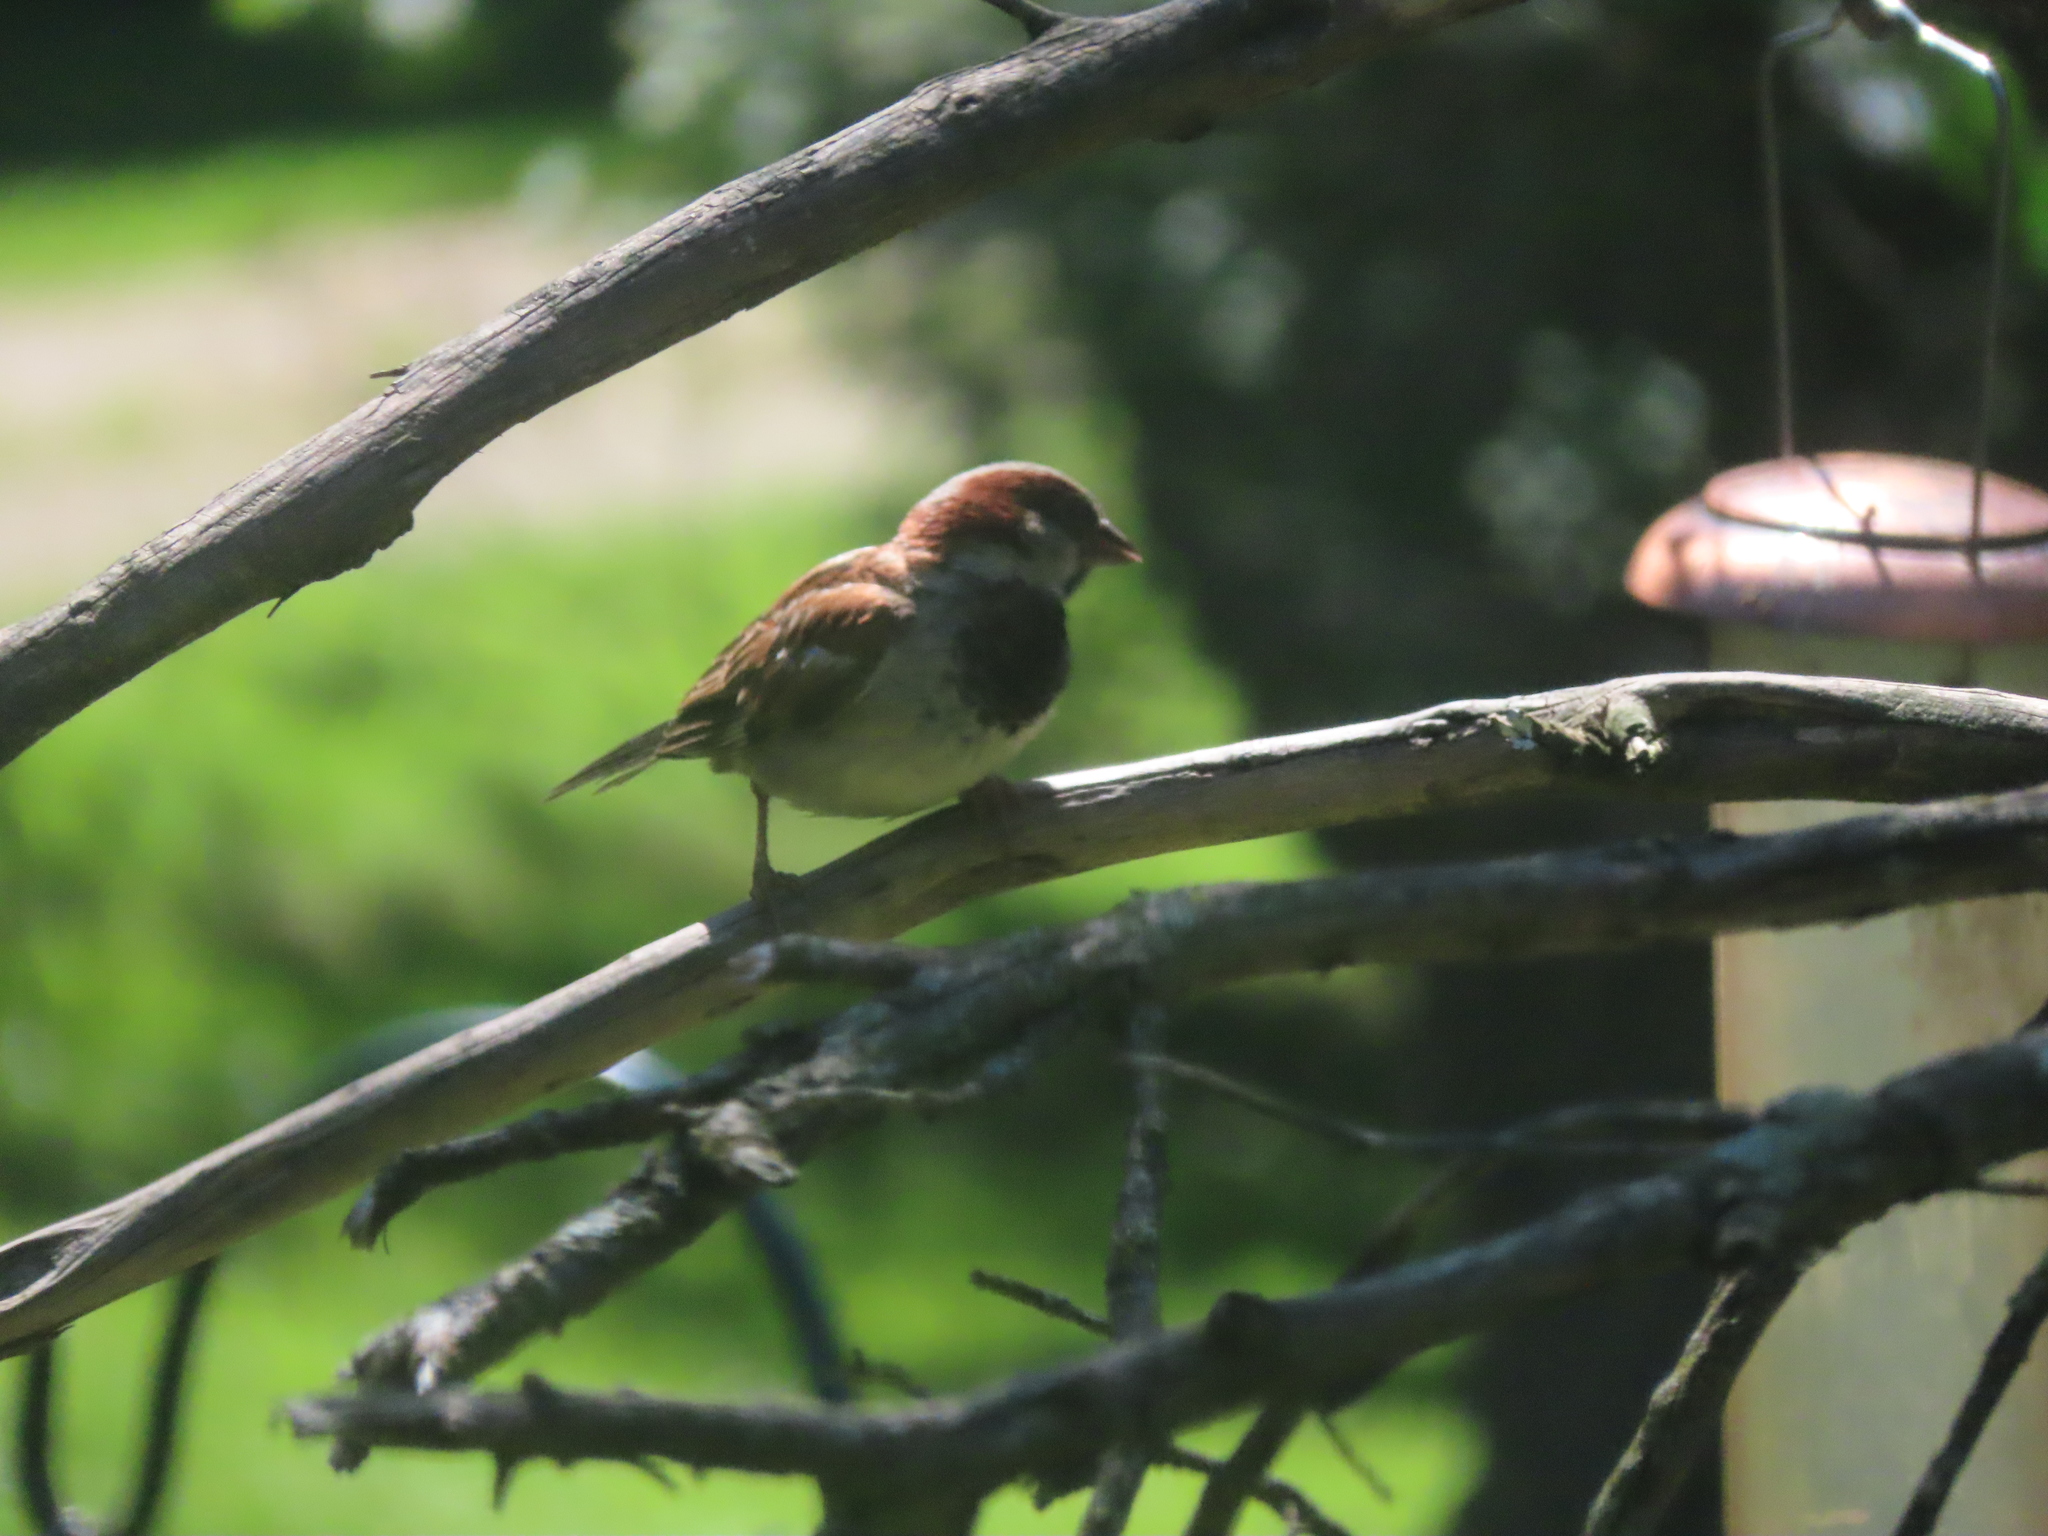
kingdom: Animalia
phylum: Chordata
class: Aves
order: Passeriformes
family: Passeridae
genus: Passer
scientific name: Passer domesticus
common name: House sparrow
